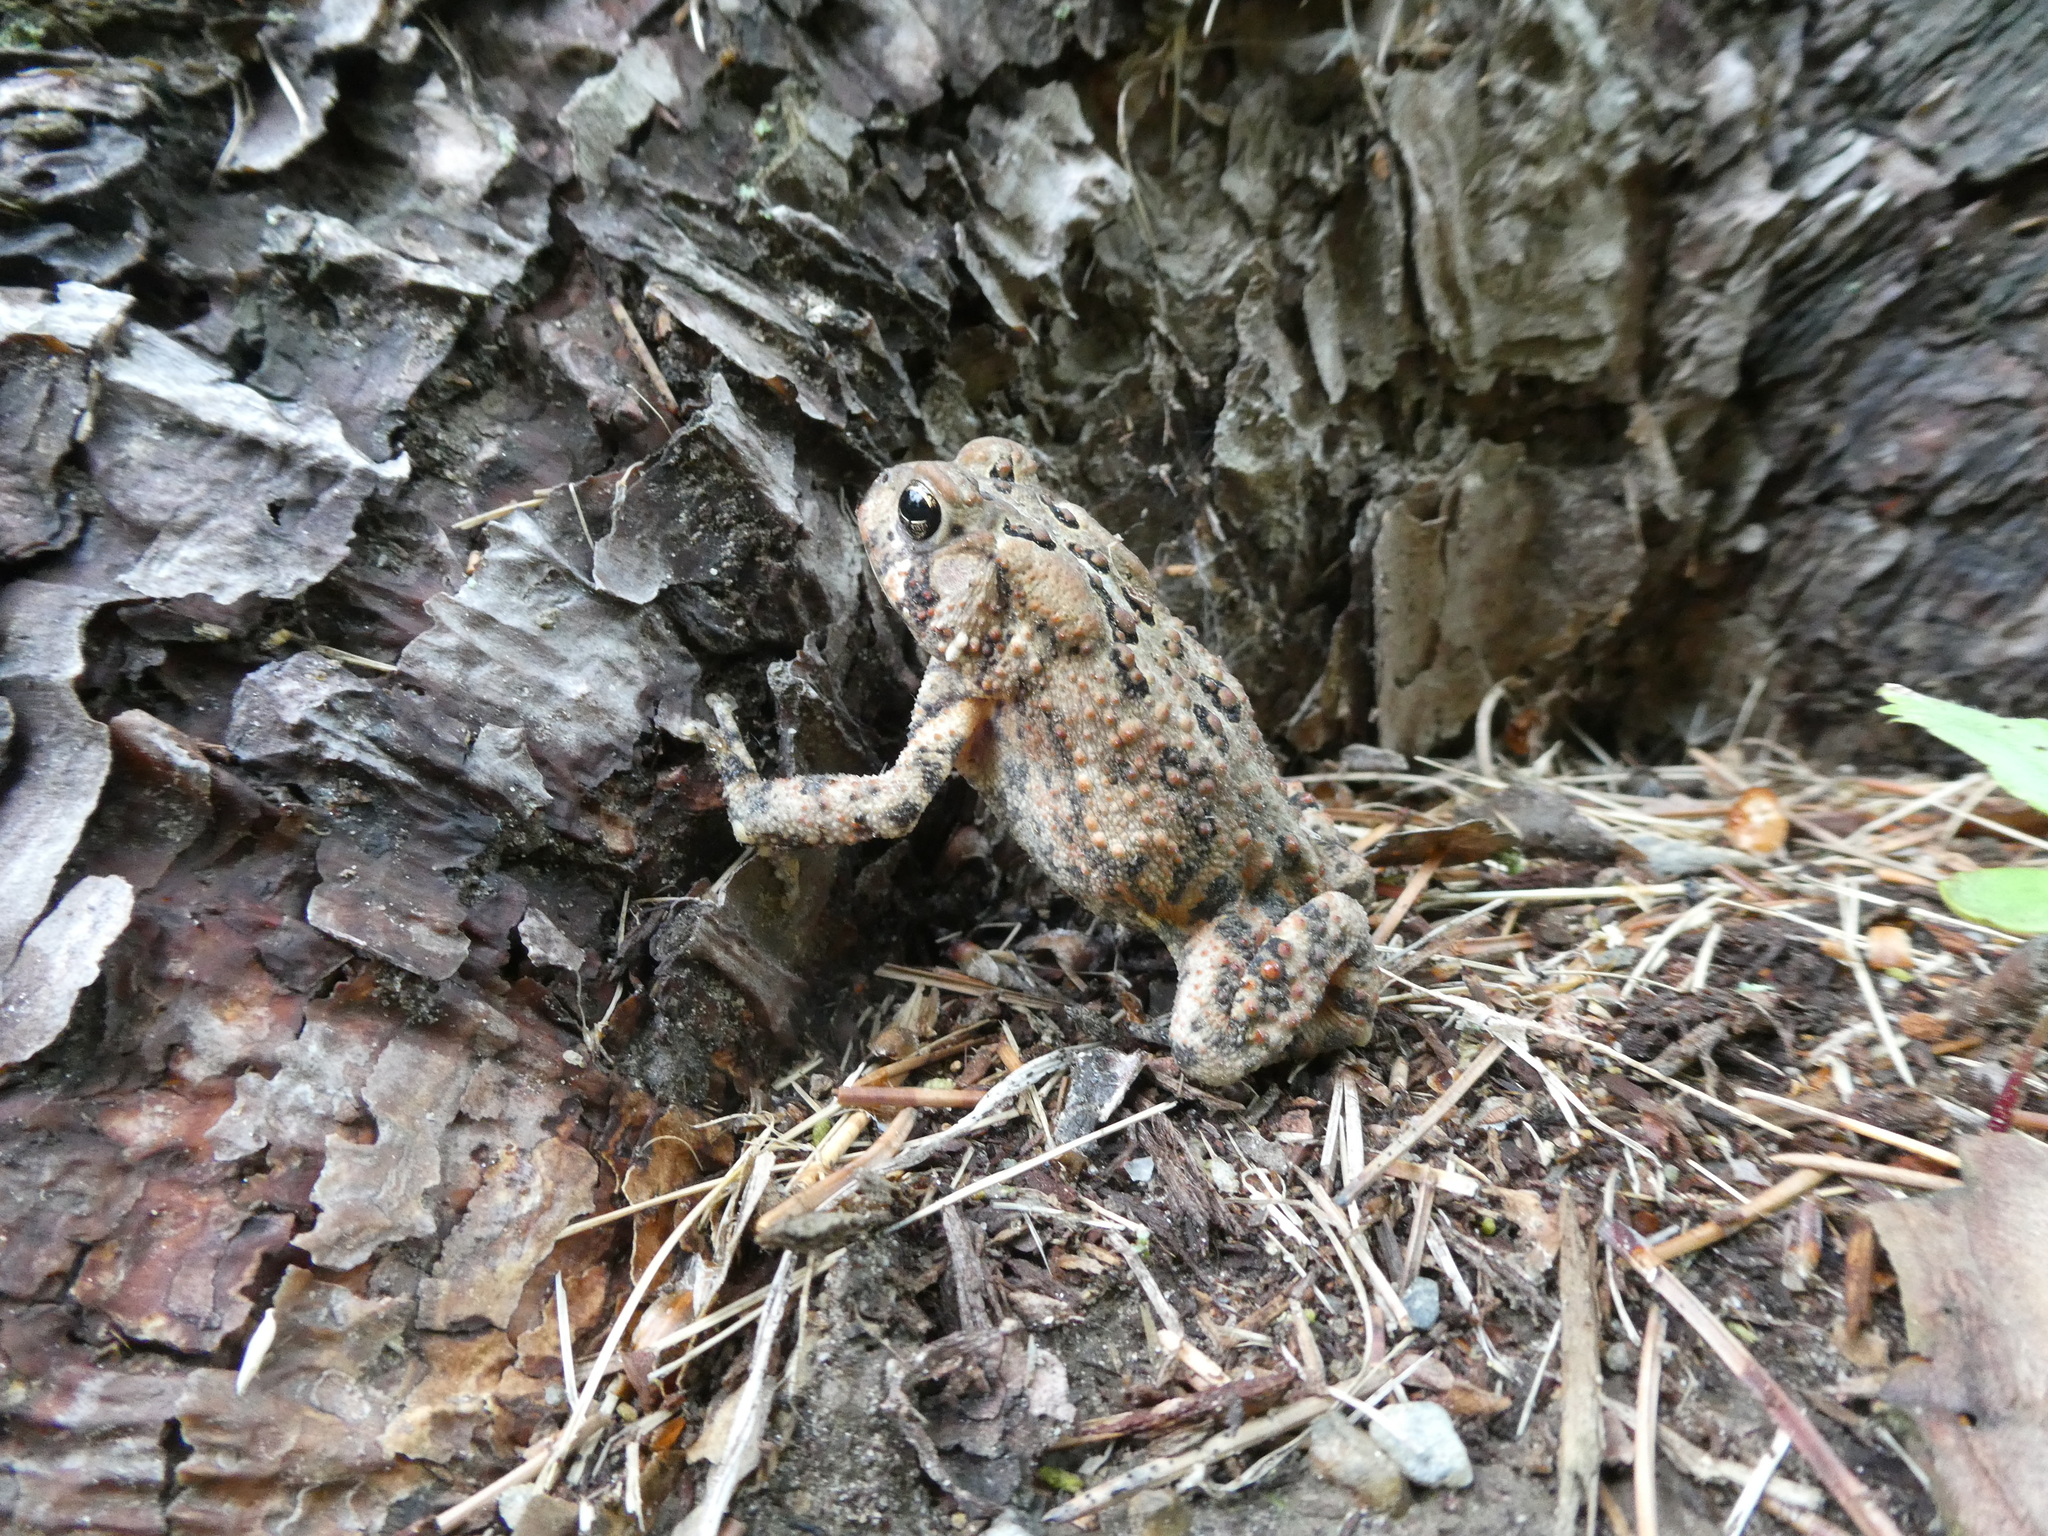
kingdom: Animalia
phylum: Chordata
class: Amphibia
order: Anura
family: Bufonidae
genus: Anaxyrus
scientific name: Anaxyrus americanus
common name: American toad
